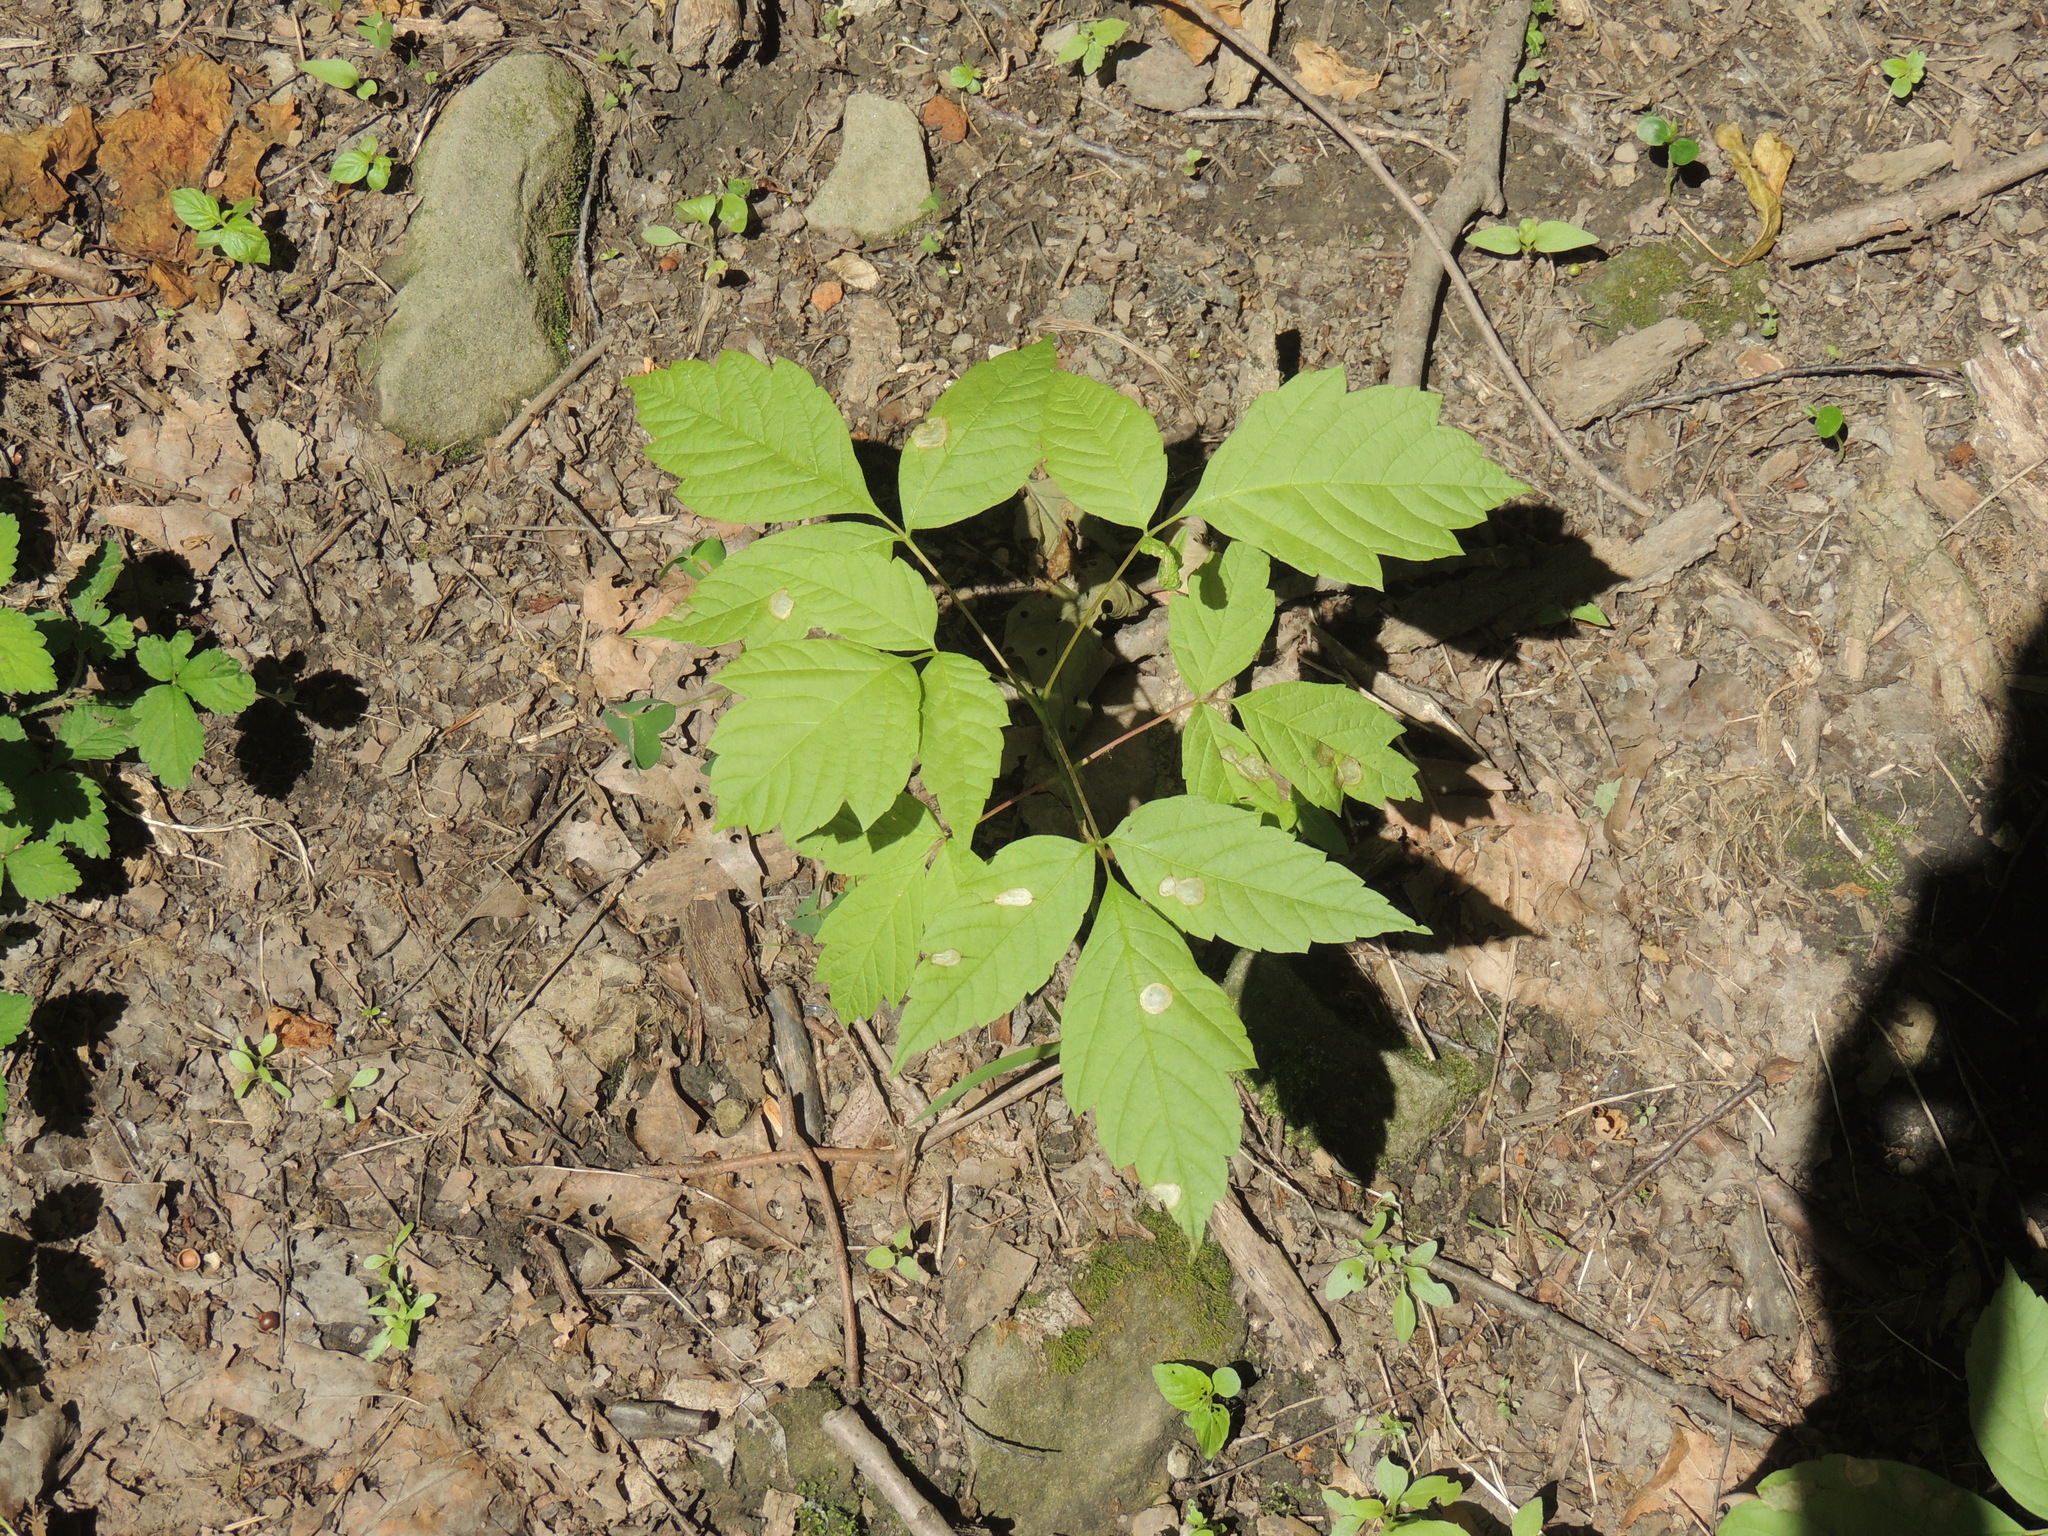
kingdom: Plantae
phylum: Tracheophyta
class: Magnoliopsida
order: Sapindales
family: Anacardiaceae
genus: Toxicodendron
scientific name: Toxicodendron radicans
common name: Poison ivy
